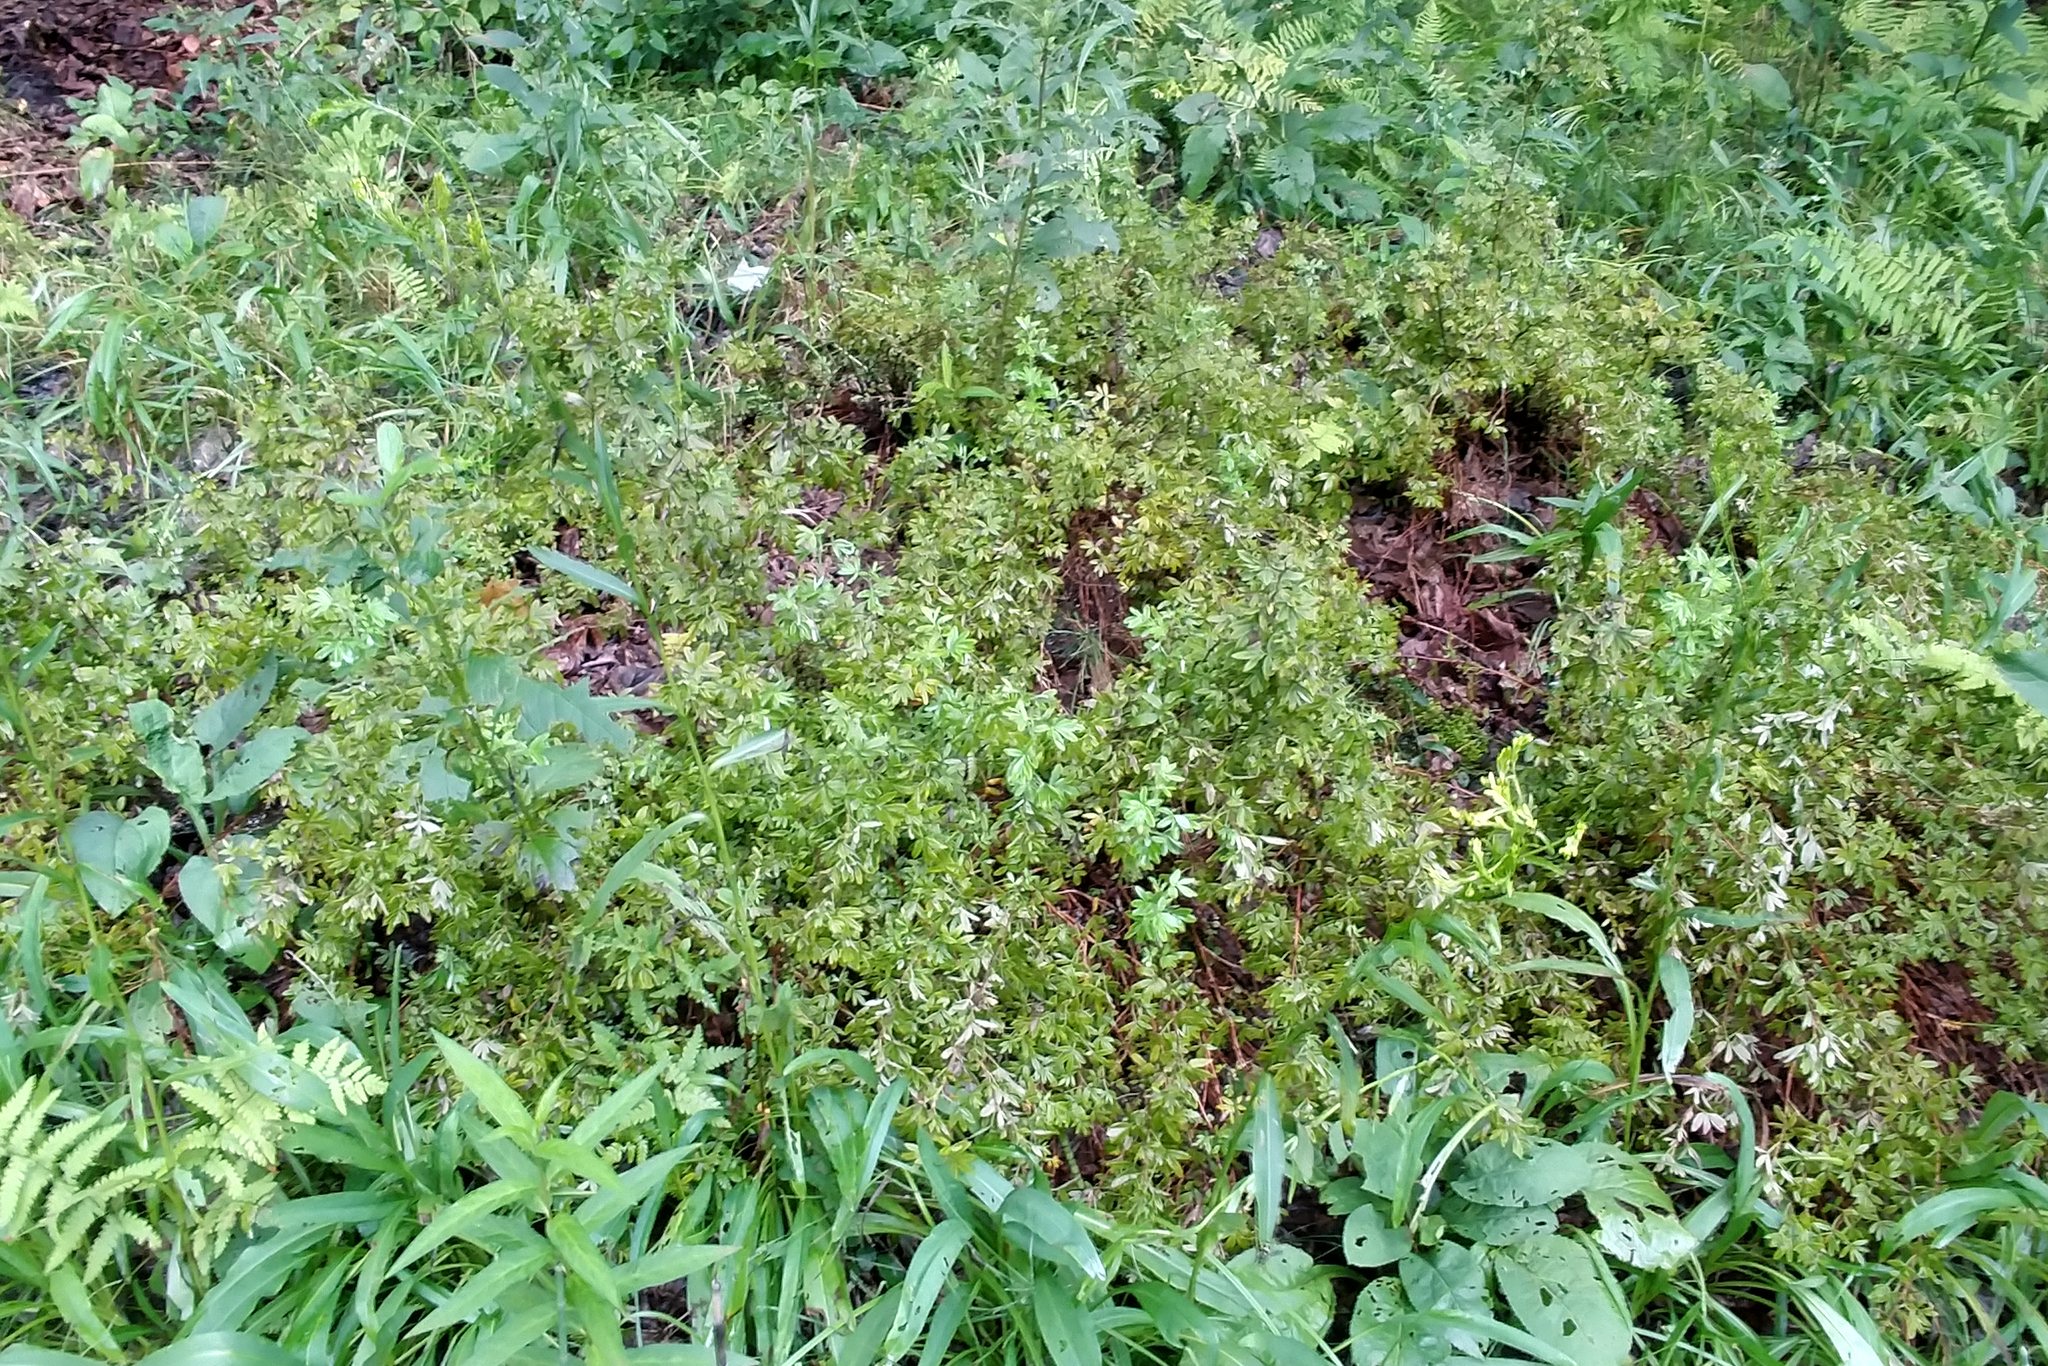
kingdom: Plantae
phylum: Tracheophyta
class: Magnoliopsida
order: Rosales
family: Rosaceae
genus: Dasiphora
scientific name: Dasiphora fruticosa
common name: Shrubby cinquefoil
